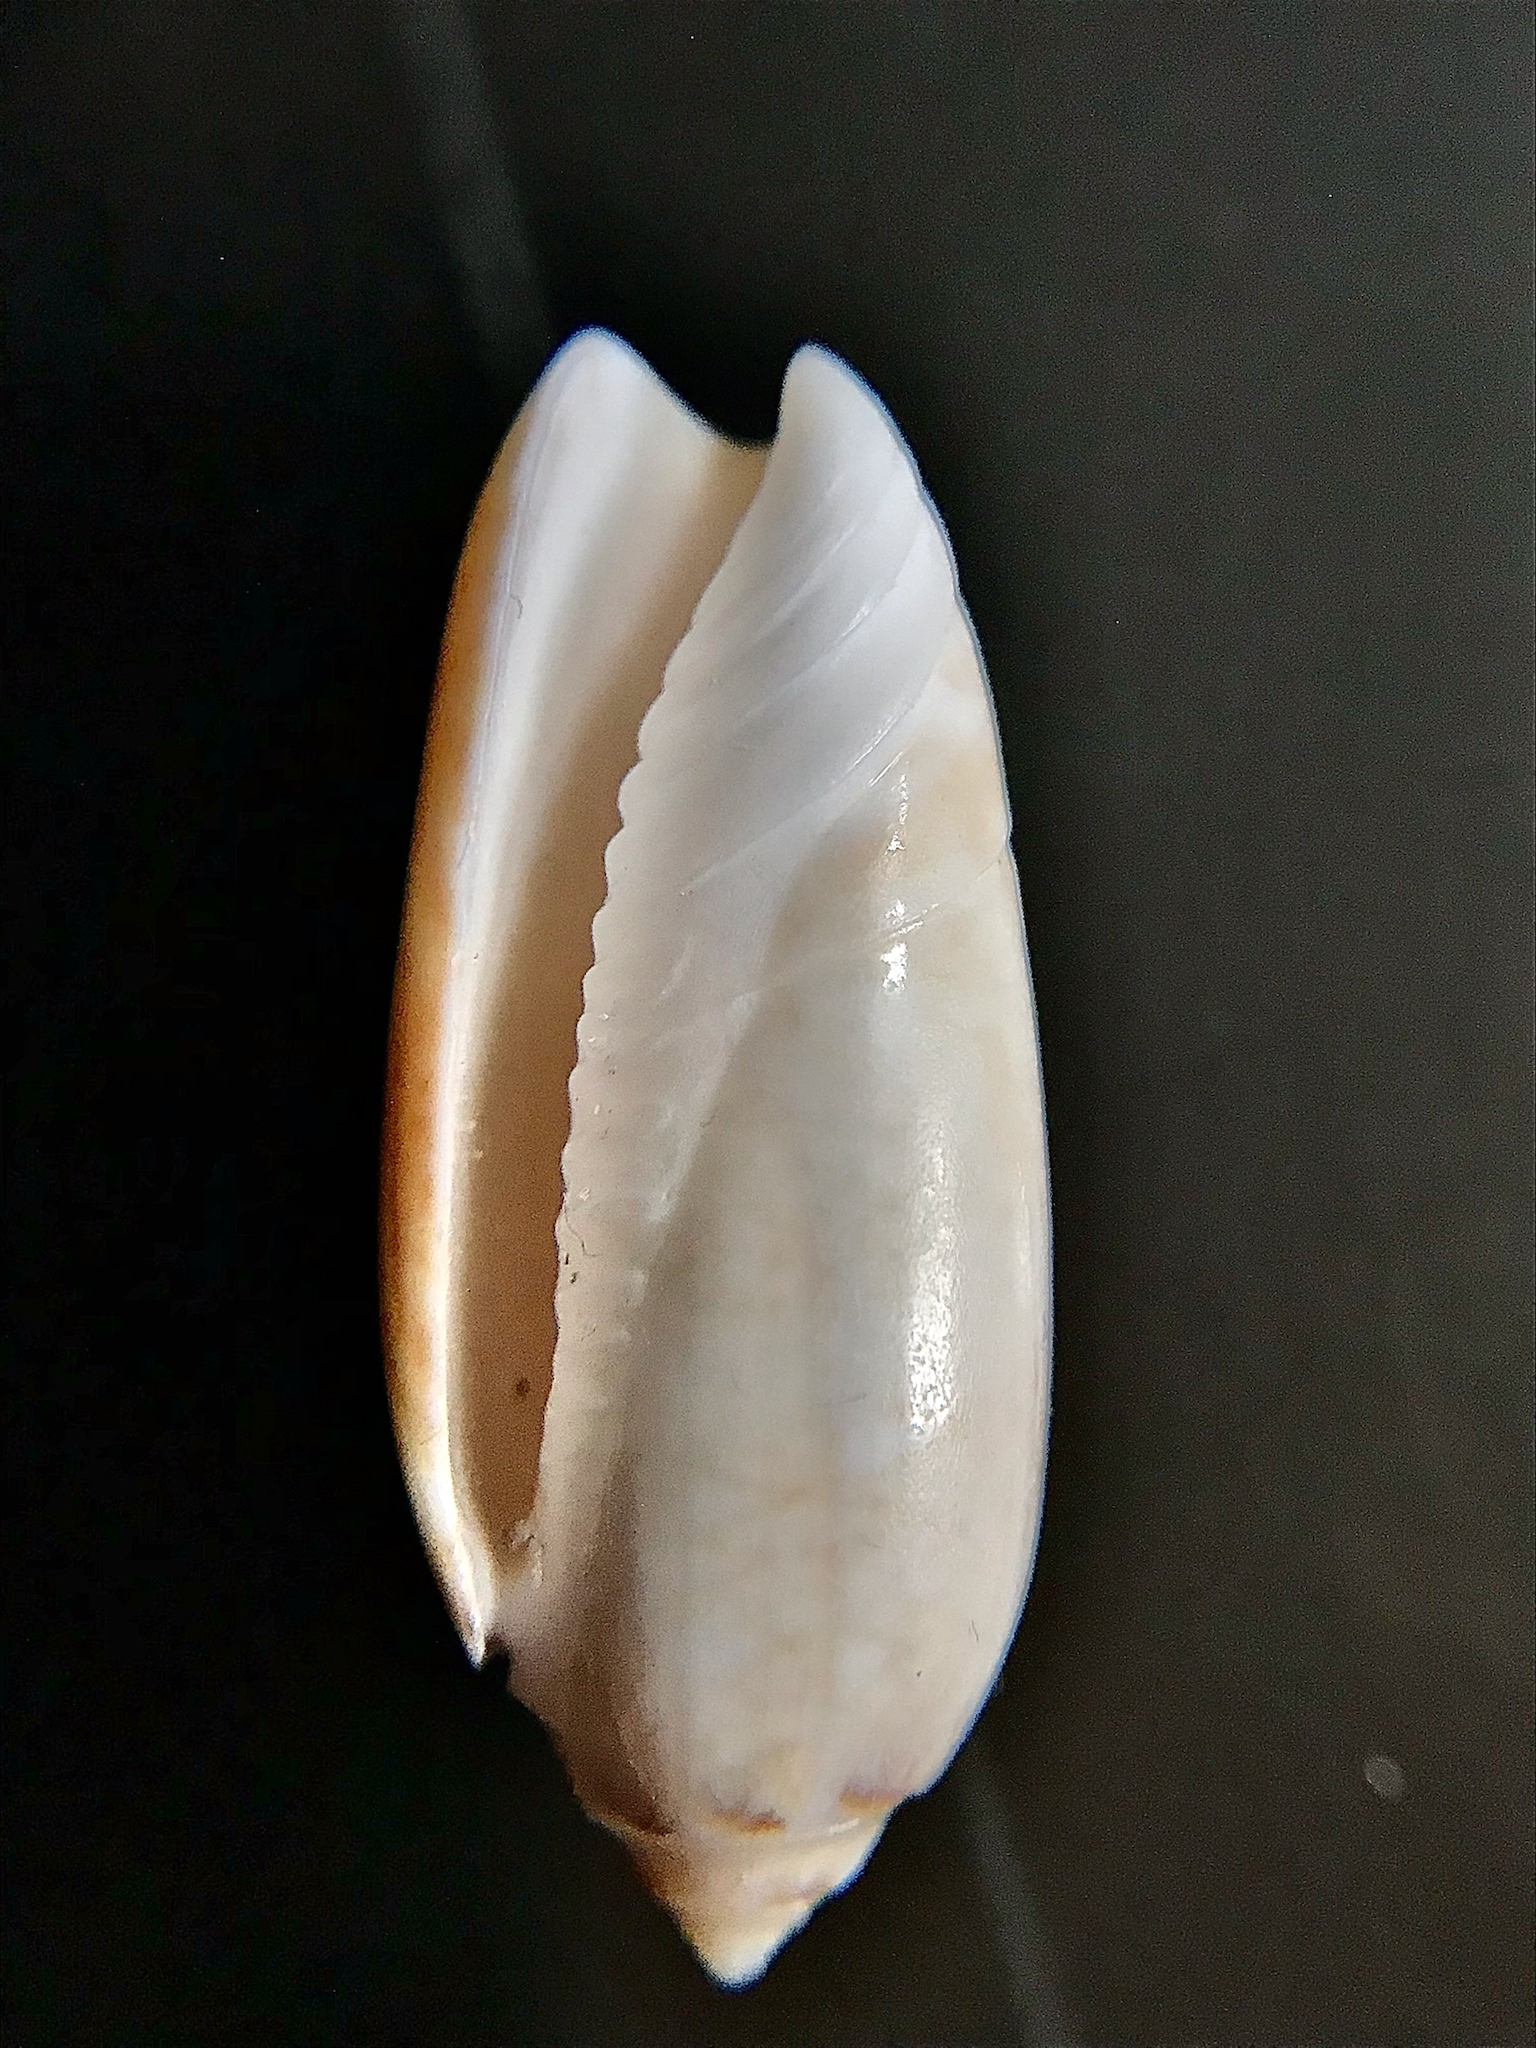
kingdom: Animalia
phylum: Mollusca
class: Gastropoda
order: Neogastropoda
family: Olividae
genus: Oliva
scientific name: Oliva sayana
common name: Lettered olive
